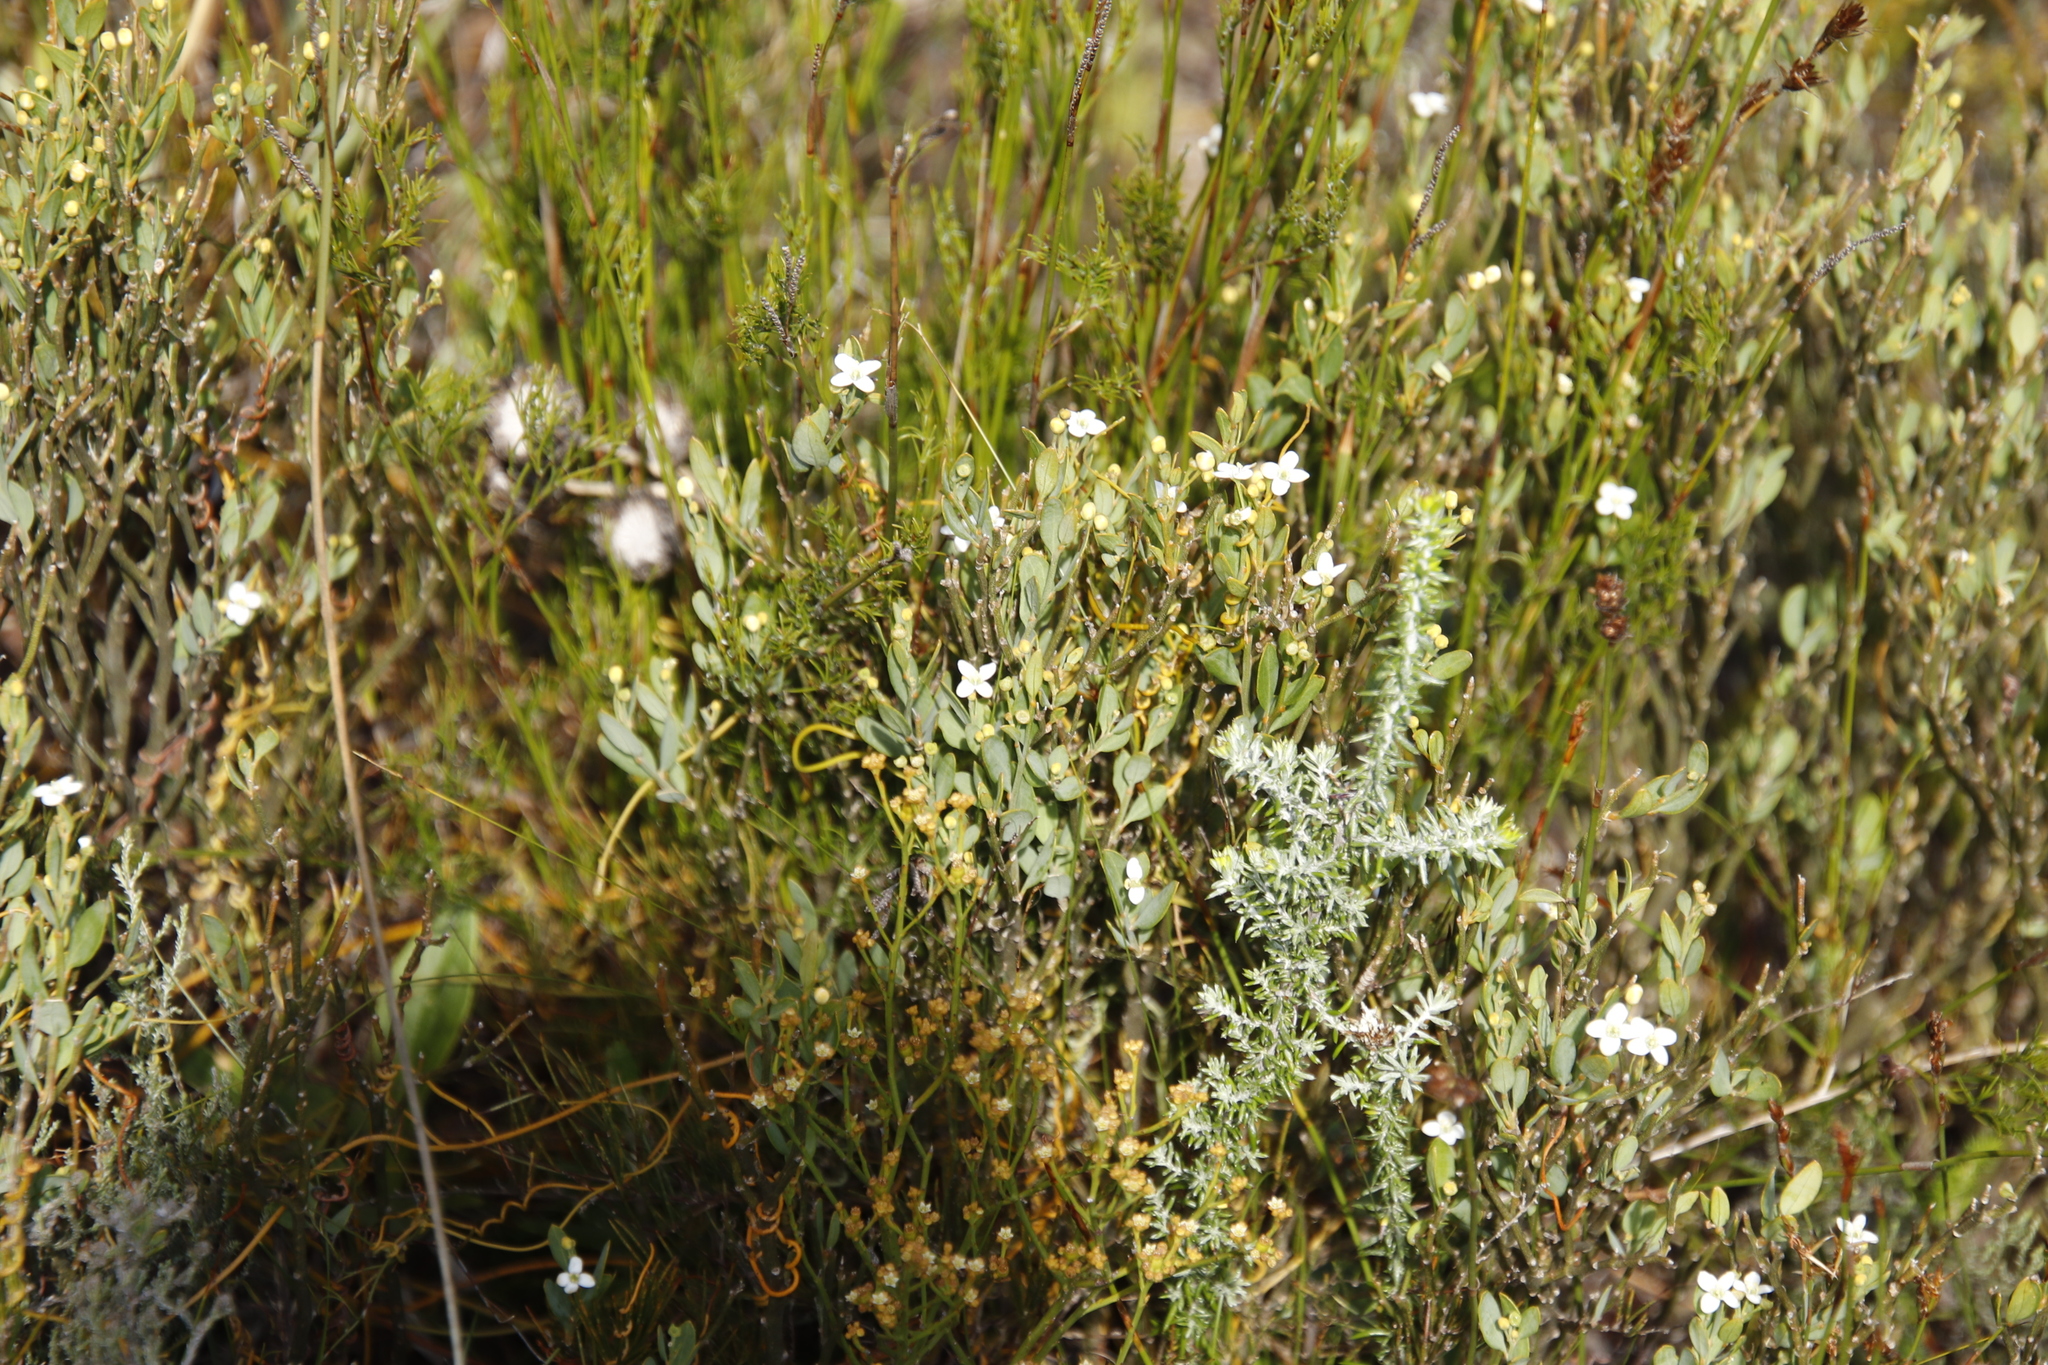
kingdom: Plantae
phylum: Tracheophyta
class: Magnoliopsida
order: Solanales
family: Montiniaceae
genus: Montinia
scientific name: Montinia caryophyllacea
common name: Wild clove-bush
